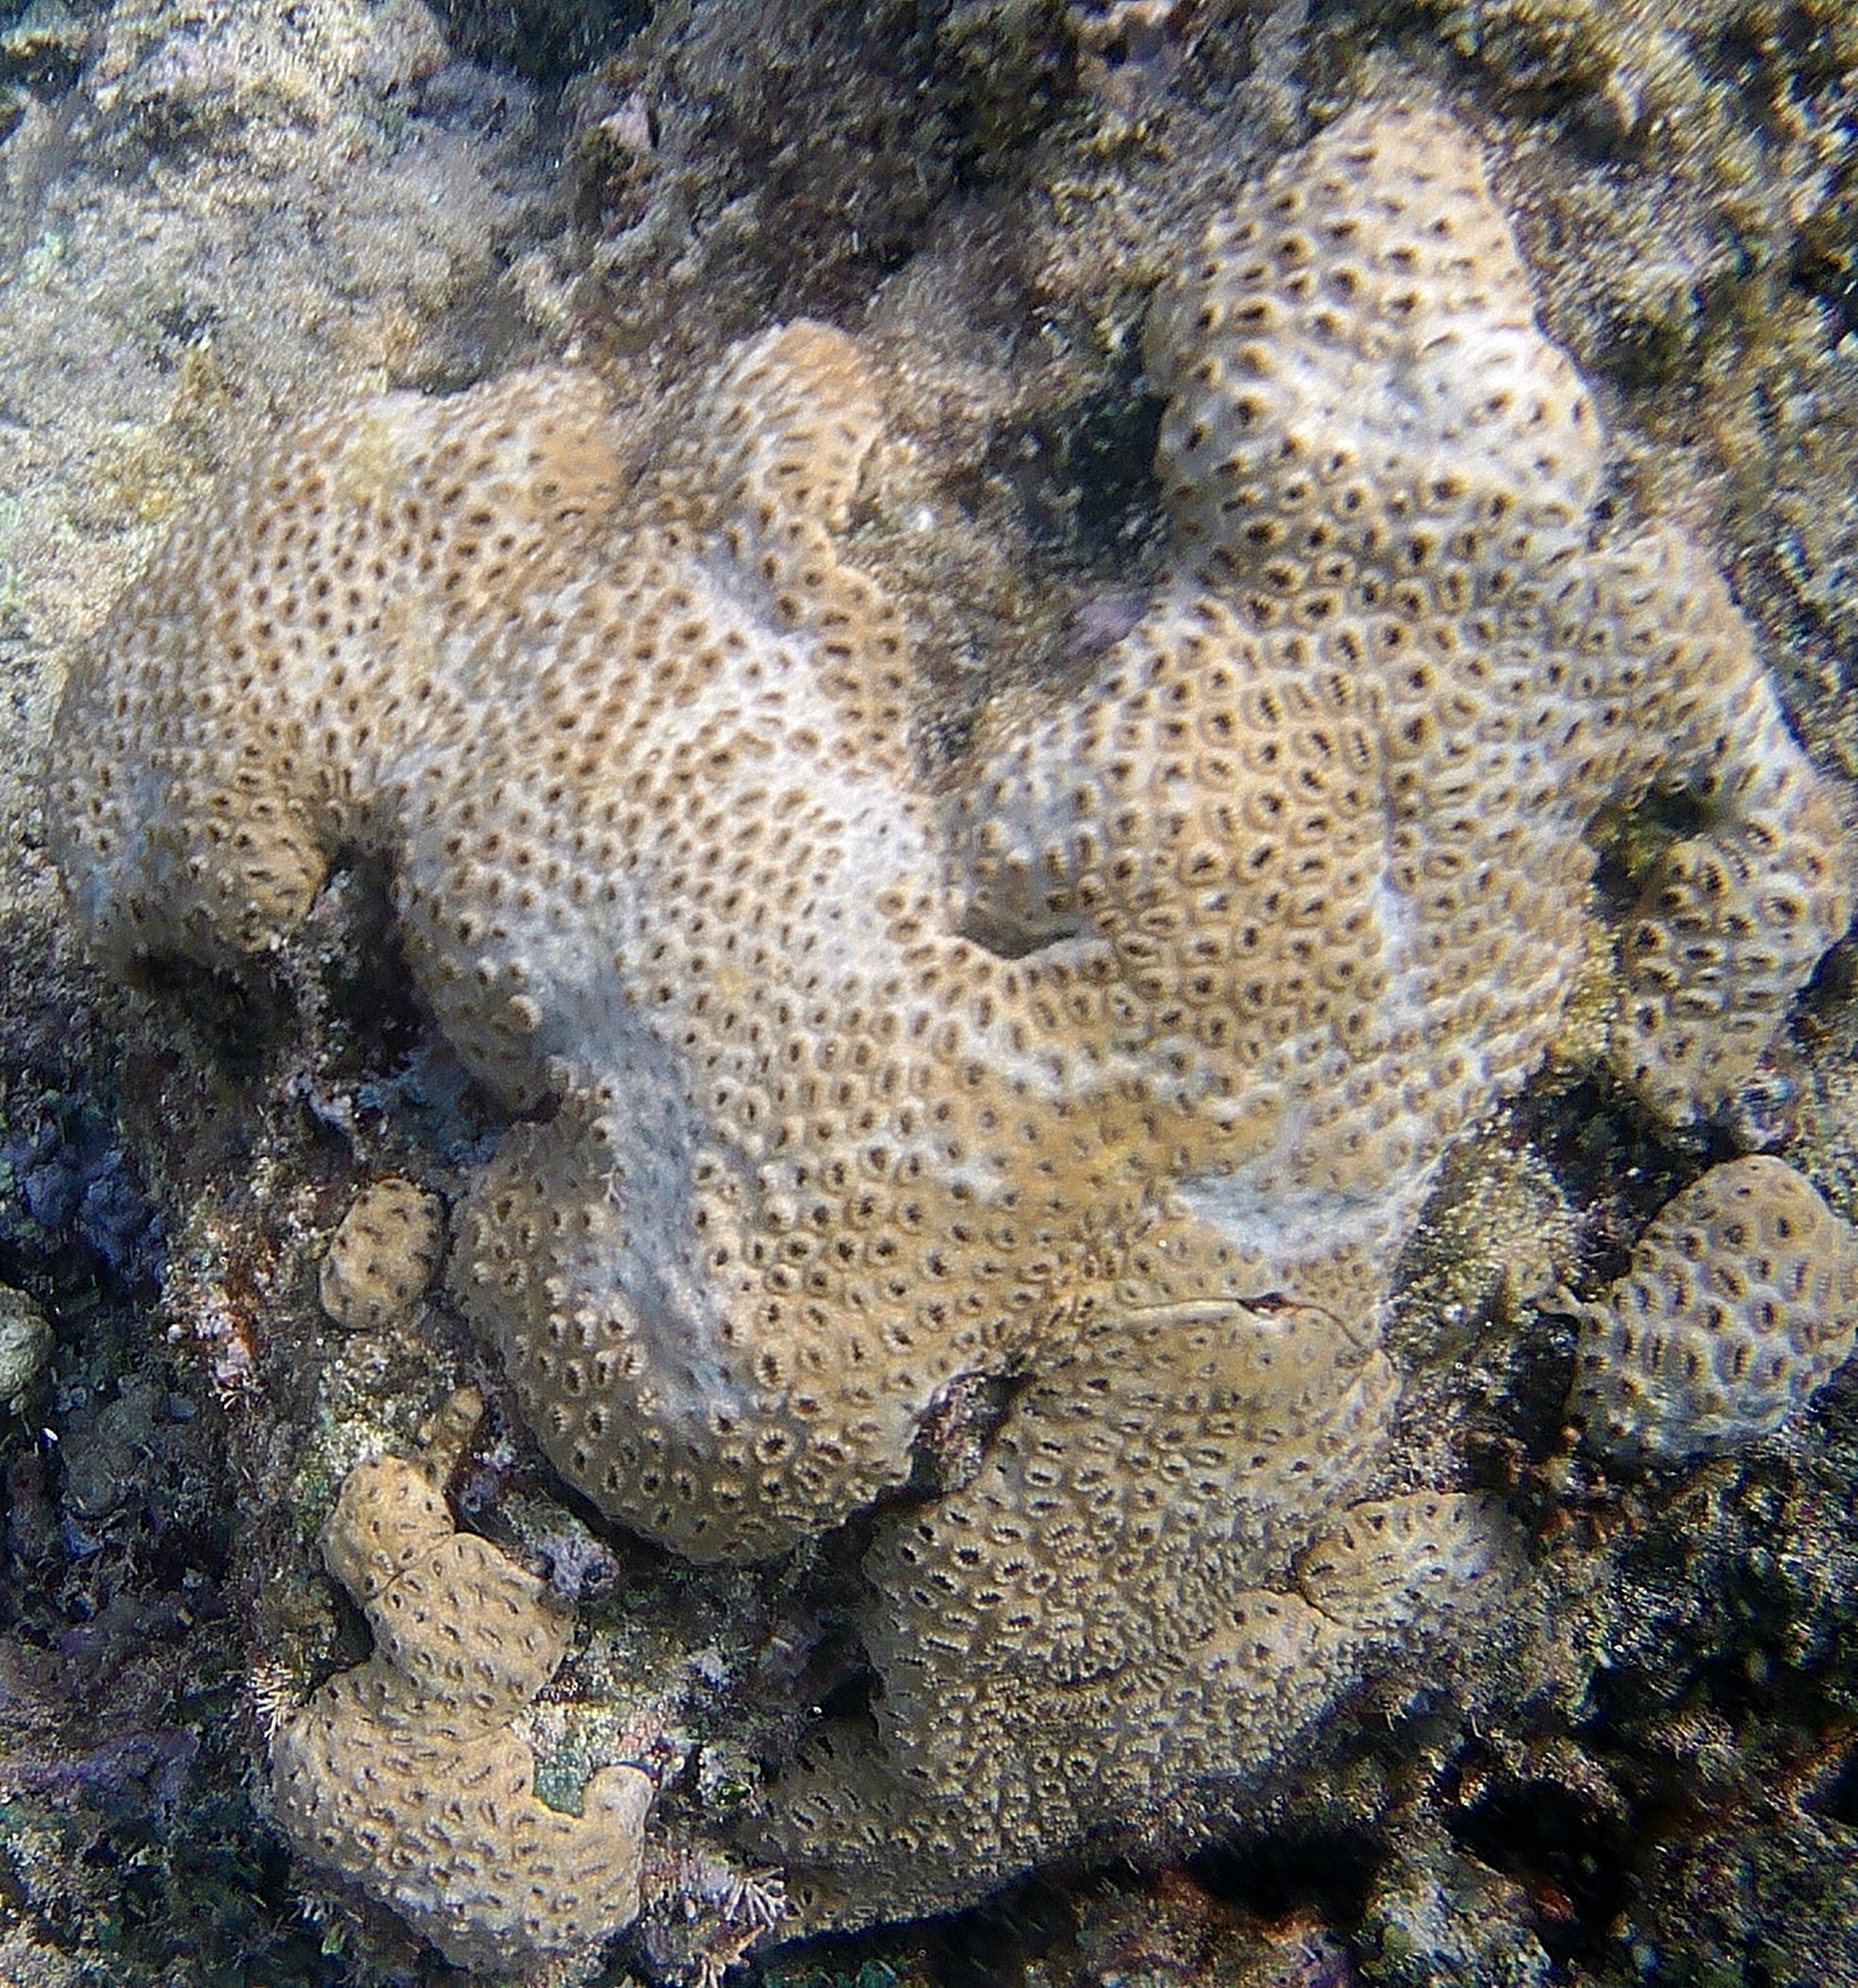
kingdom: Animalia
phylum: Cnidaria
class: Anthozoa
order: Zoantharia
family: Sphenopidae
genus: Palythoa
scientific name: Palythoa tuberculosa
